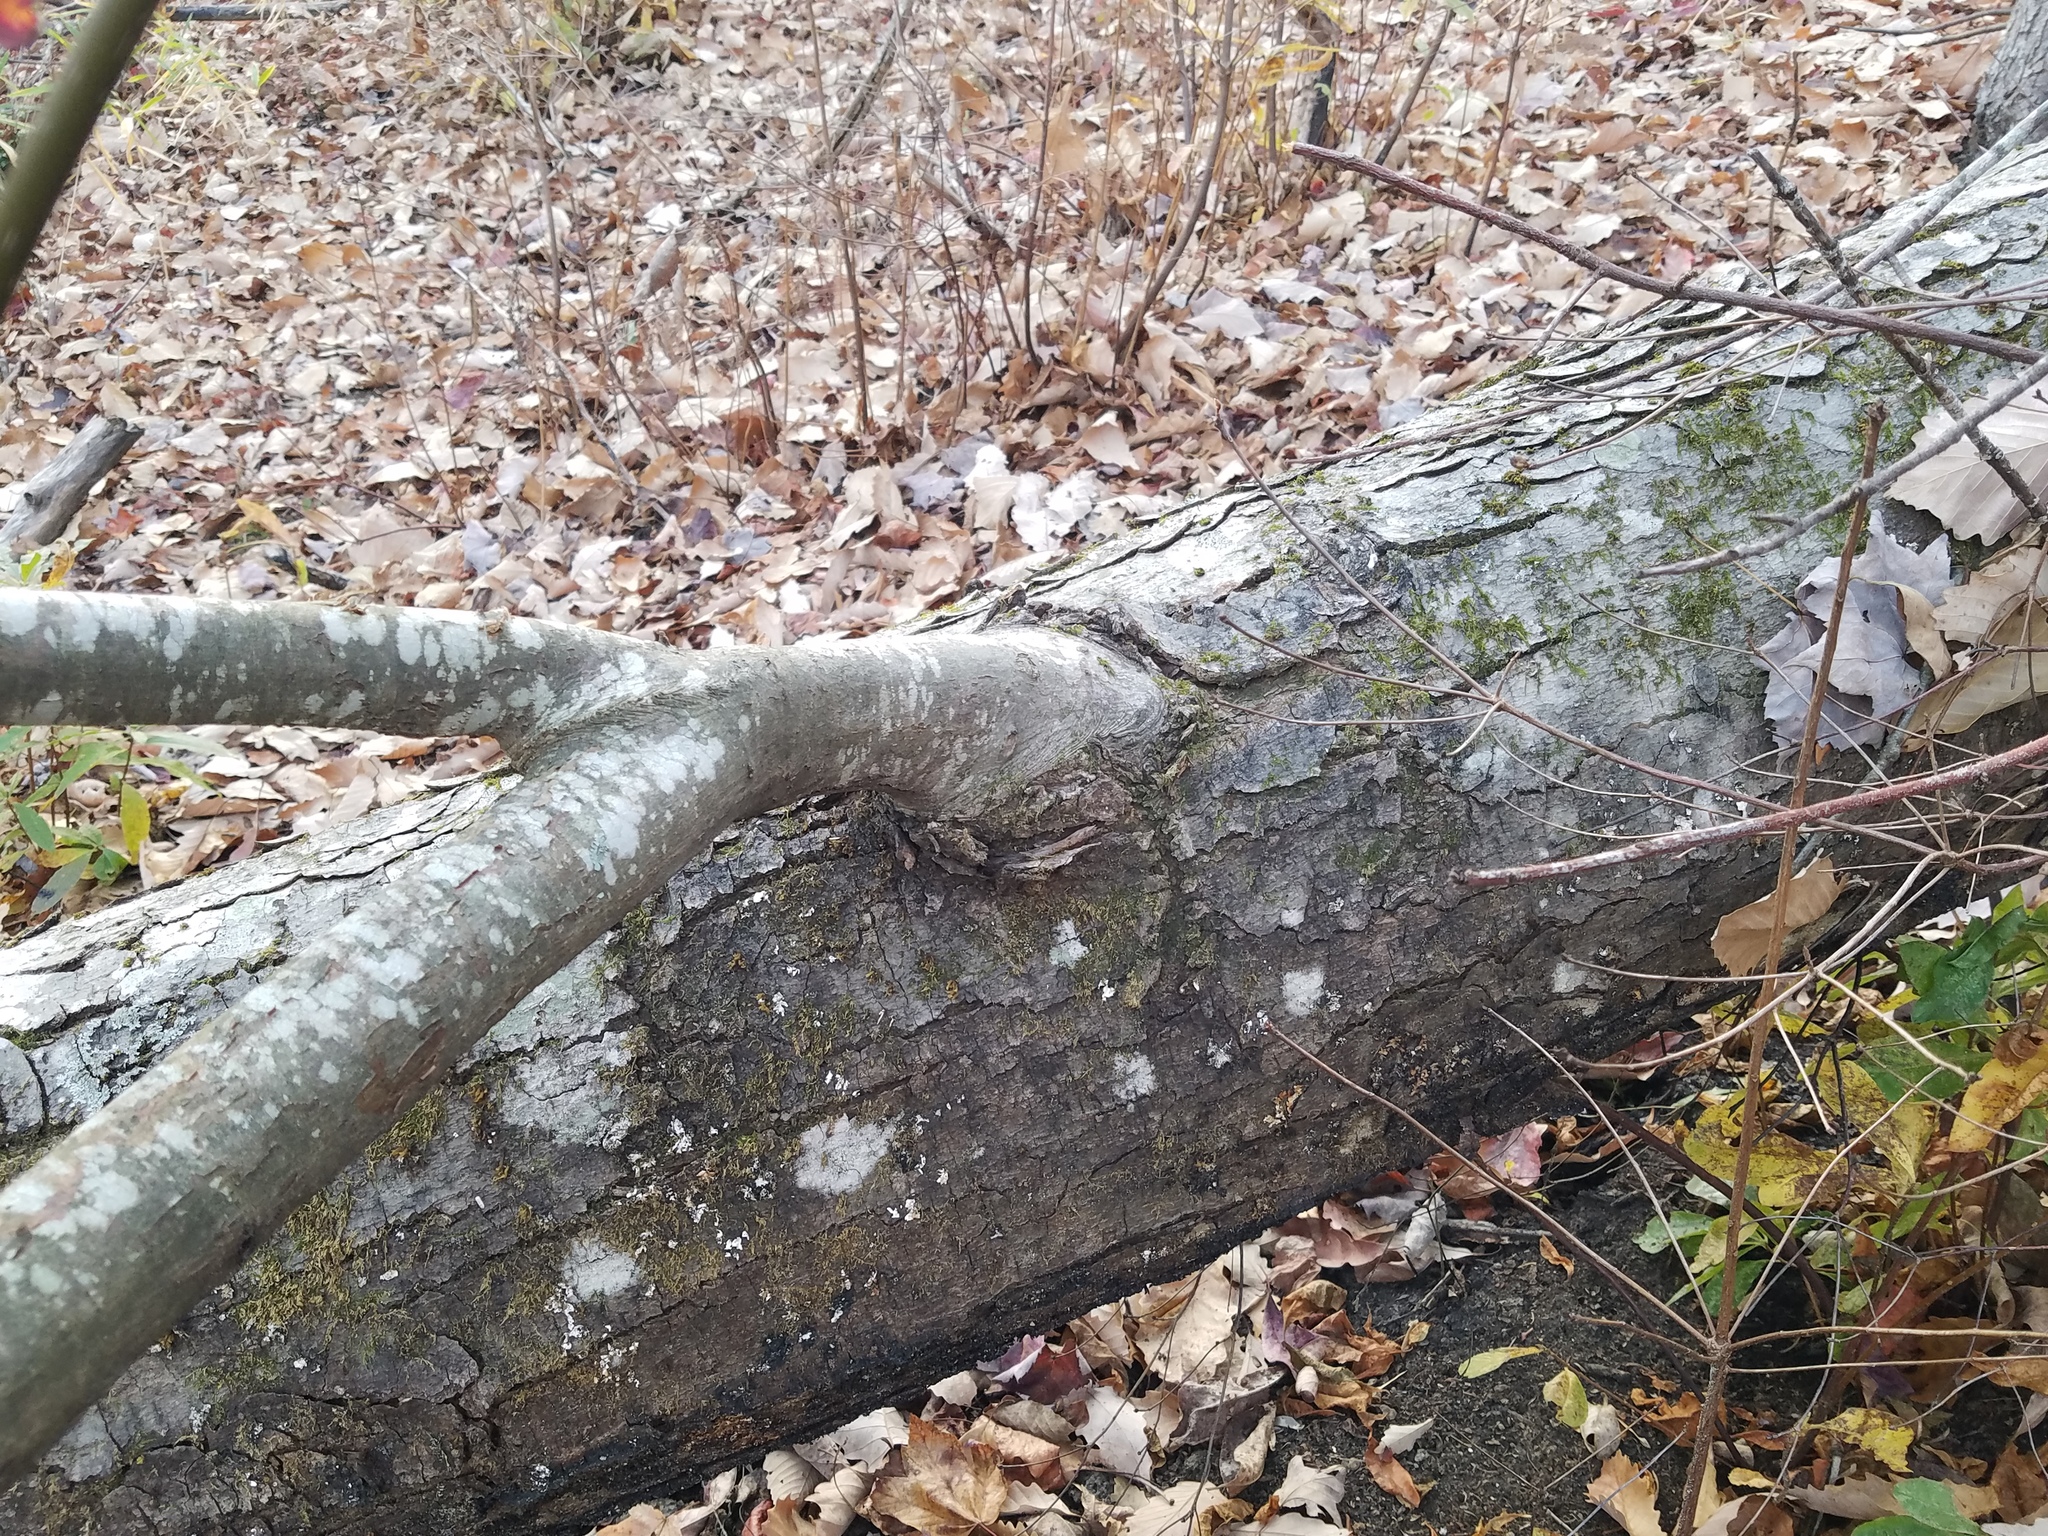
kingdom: Plantae
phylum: Tracheophyta
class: Magnoliopsida
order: Sapindales
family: Sapindaceae
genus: Acer
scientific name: Acer rubrum
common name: Red maple
